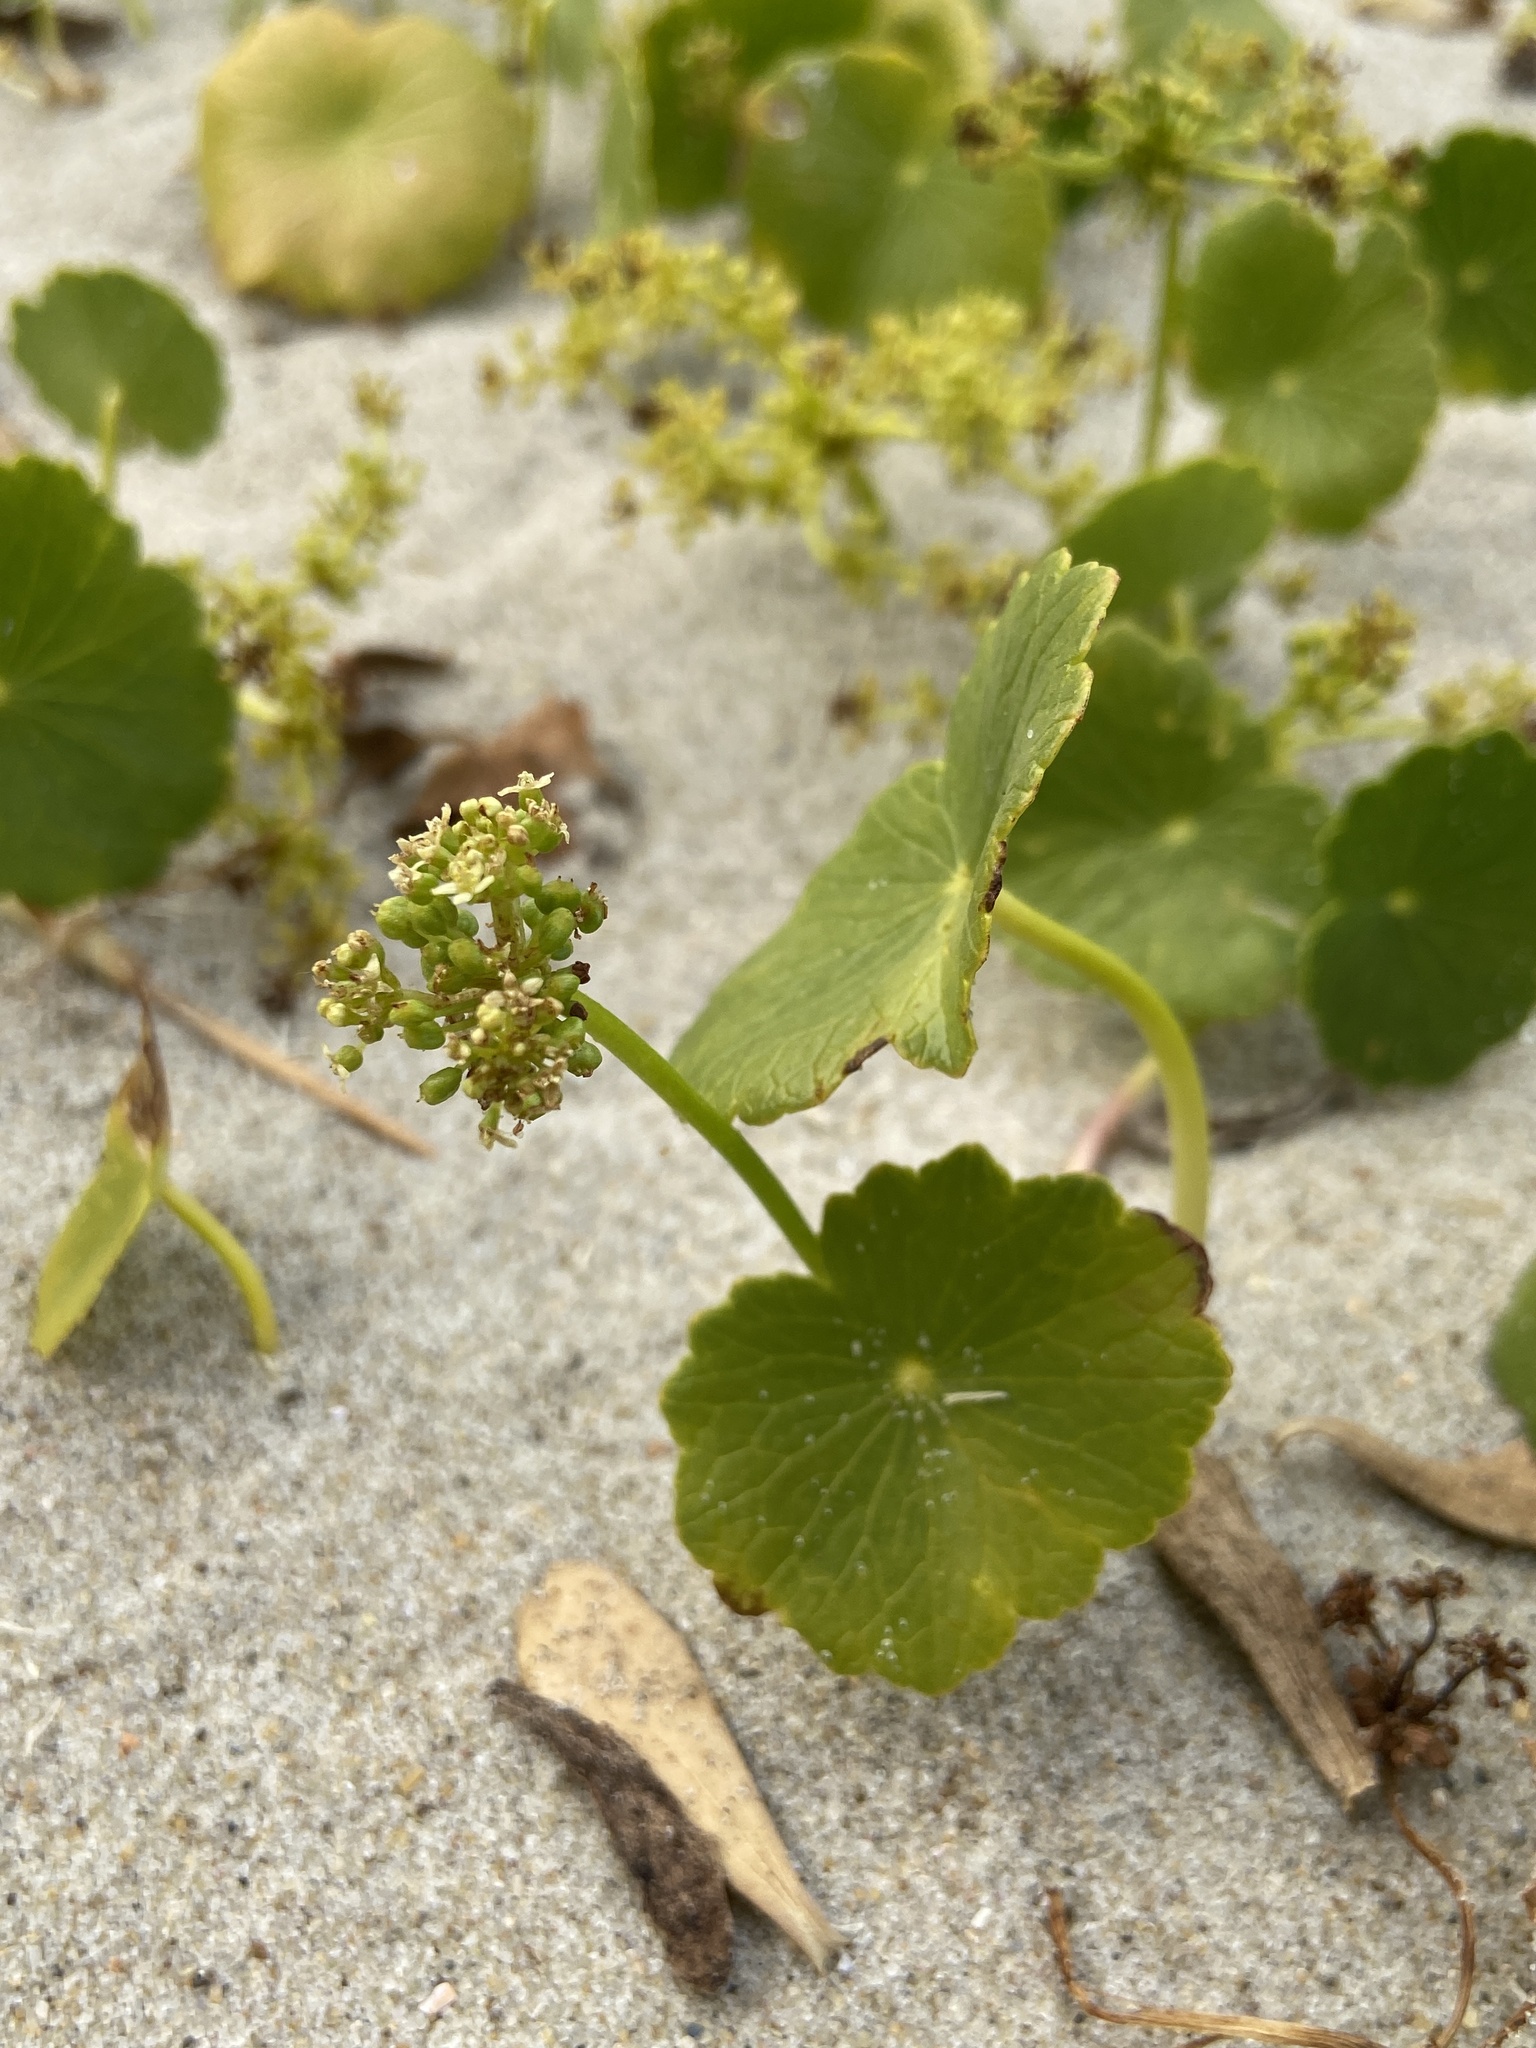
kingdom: Plantae
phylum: Tracheophyta
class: Magnoliopsida
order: Apiales
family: Araliaceae
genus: Hydrocotyle
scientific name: Hydrocotyle bonariensis
